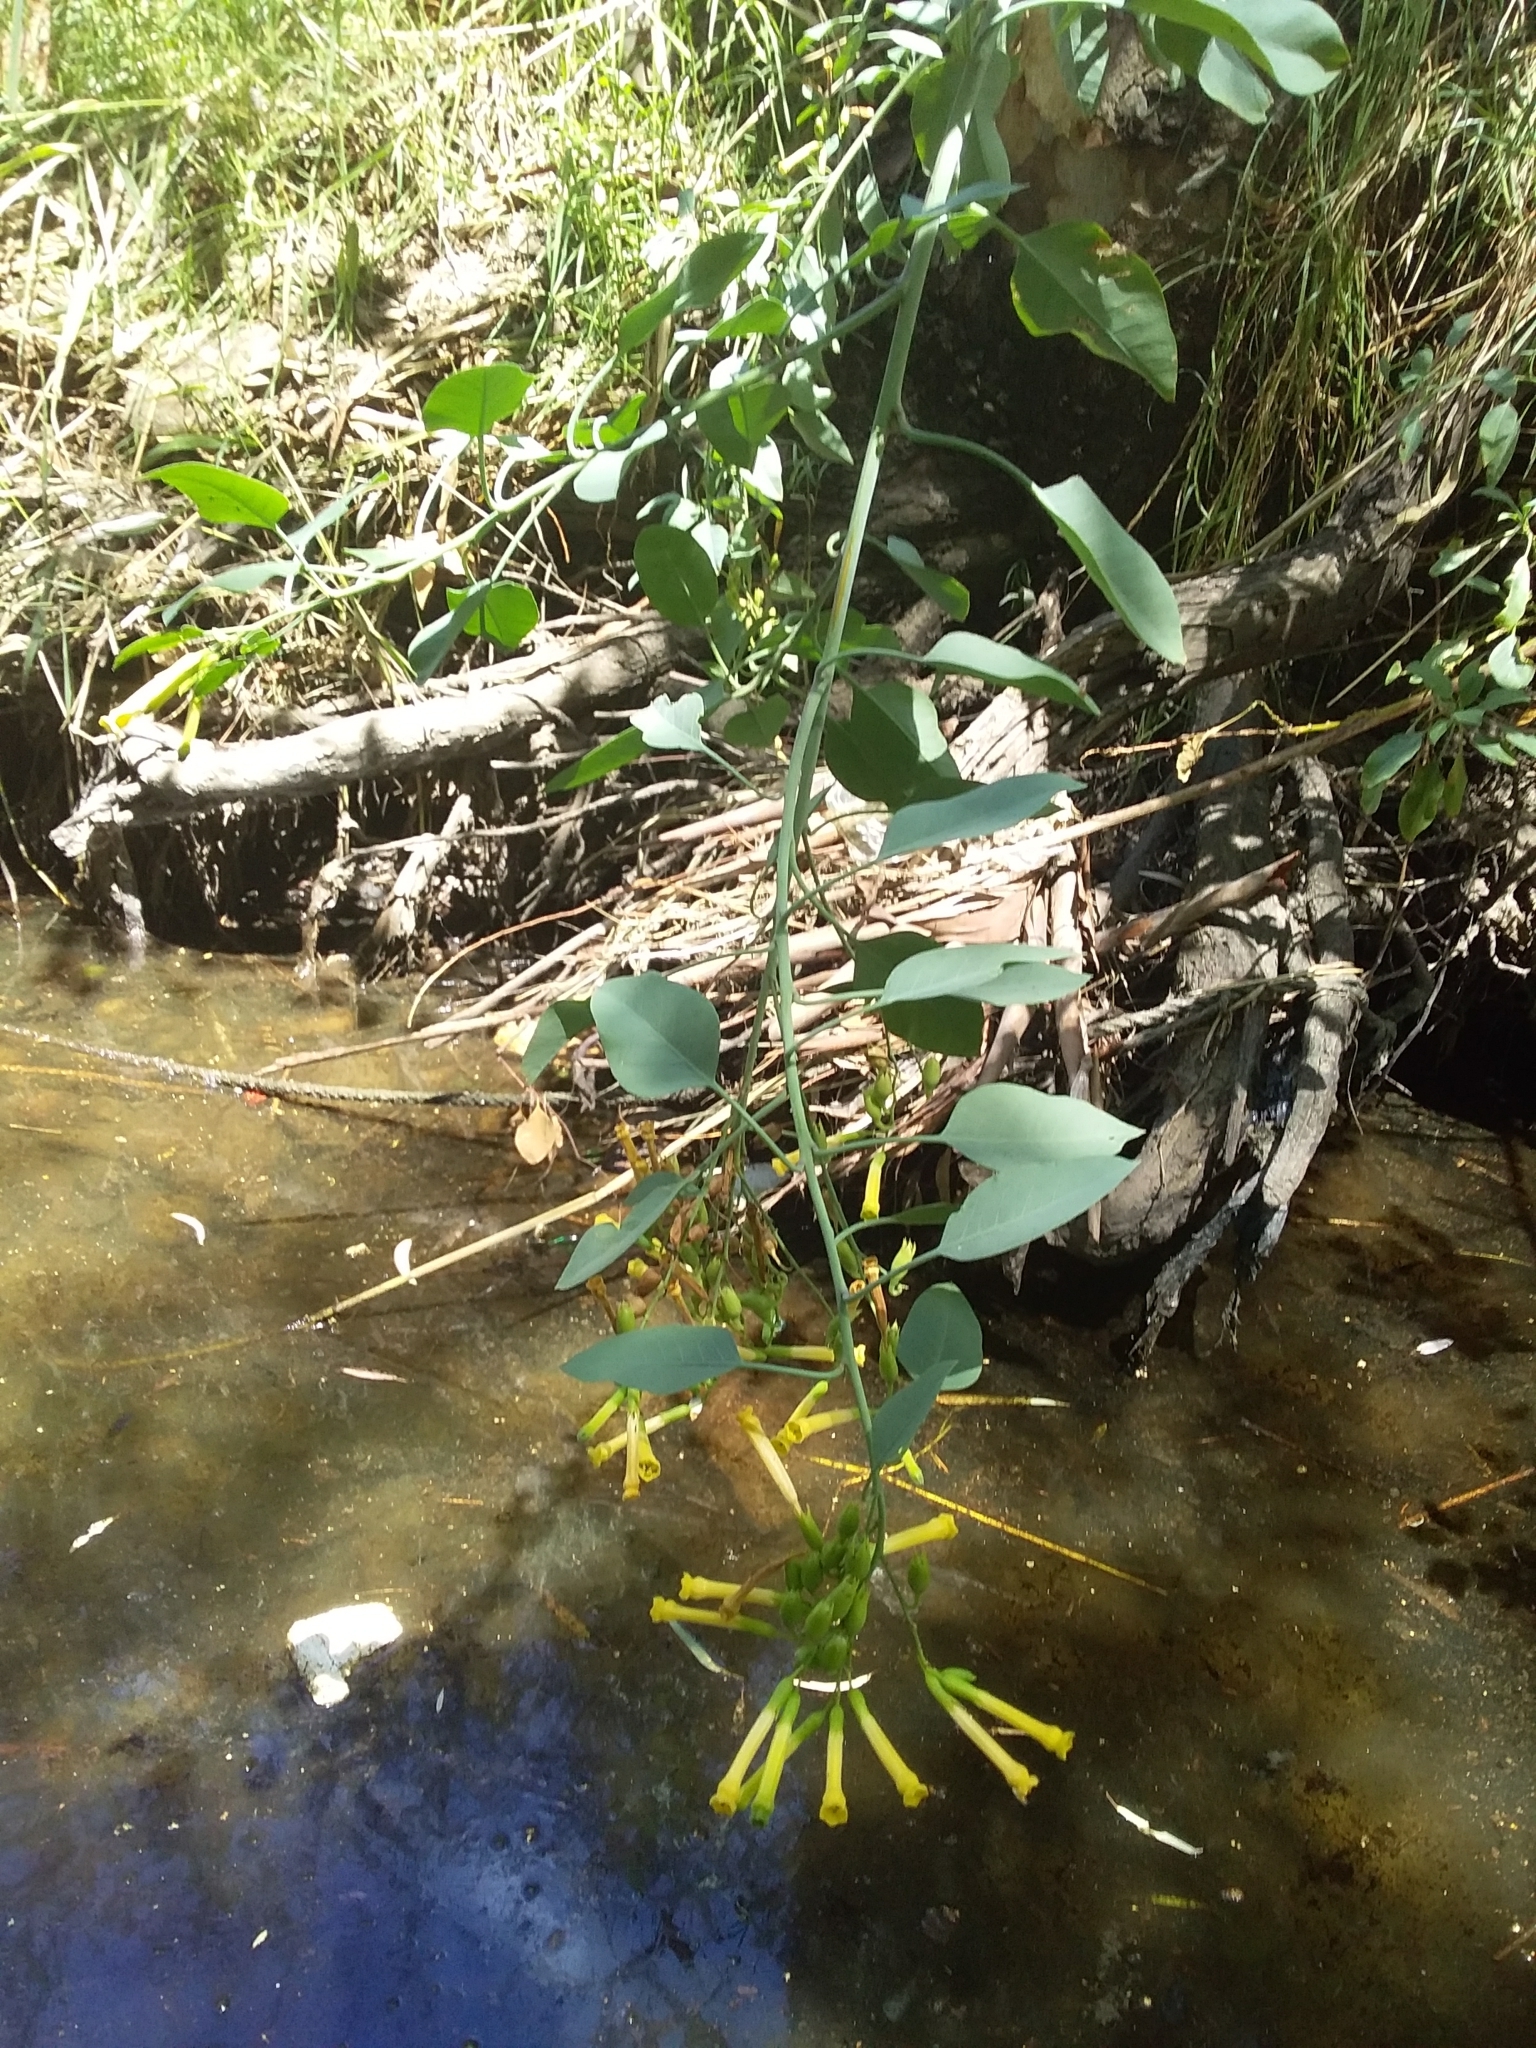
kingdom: Plantae
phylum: Tracheophyta
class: Magnoliopsida
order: Solanales
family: Solanaceae
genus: Nicotiana
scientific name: Nicotiana glauca
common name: Tree tobacco
